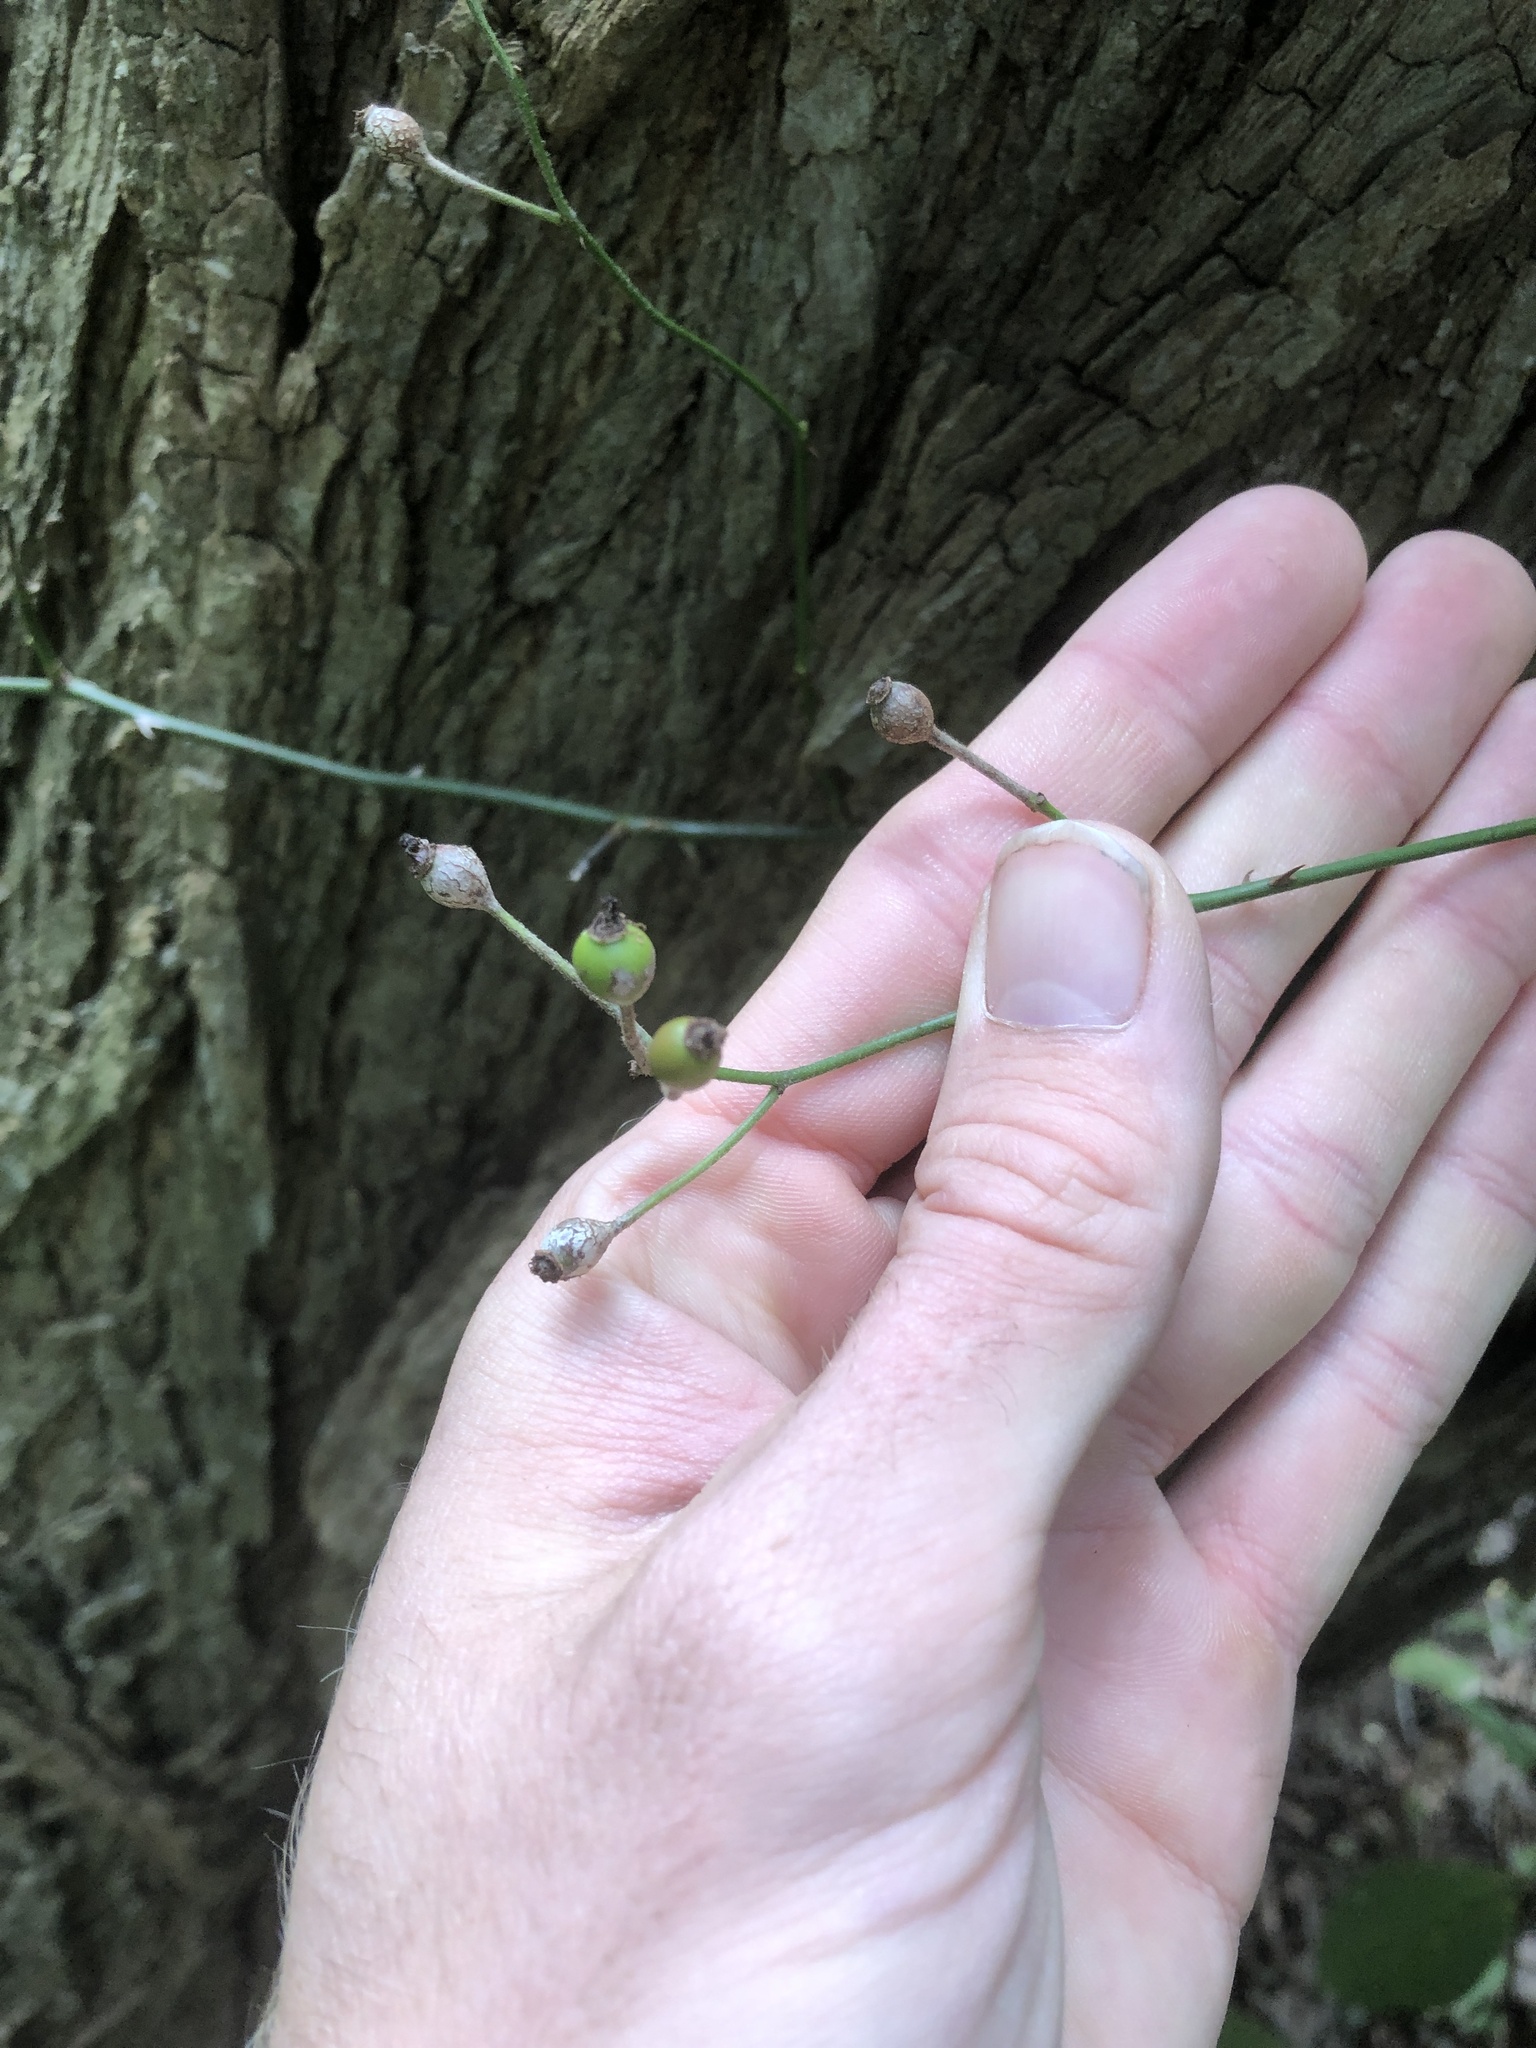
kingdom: Plantae
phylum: Tracheophyta
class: Magnoliopsida
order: Rosales
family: Rosaceae
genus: Rosa
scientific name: Rosa multiflora
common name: Multiflora rose
